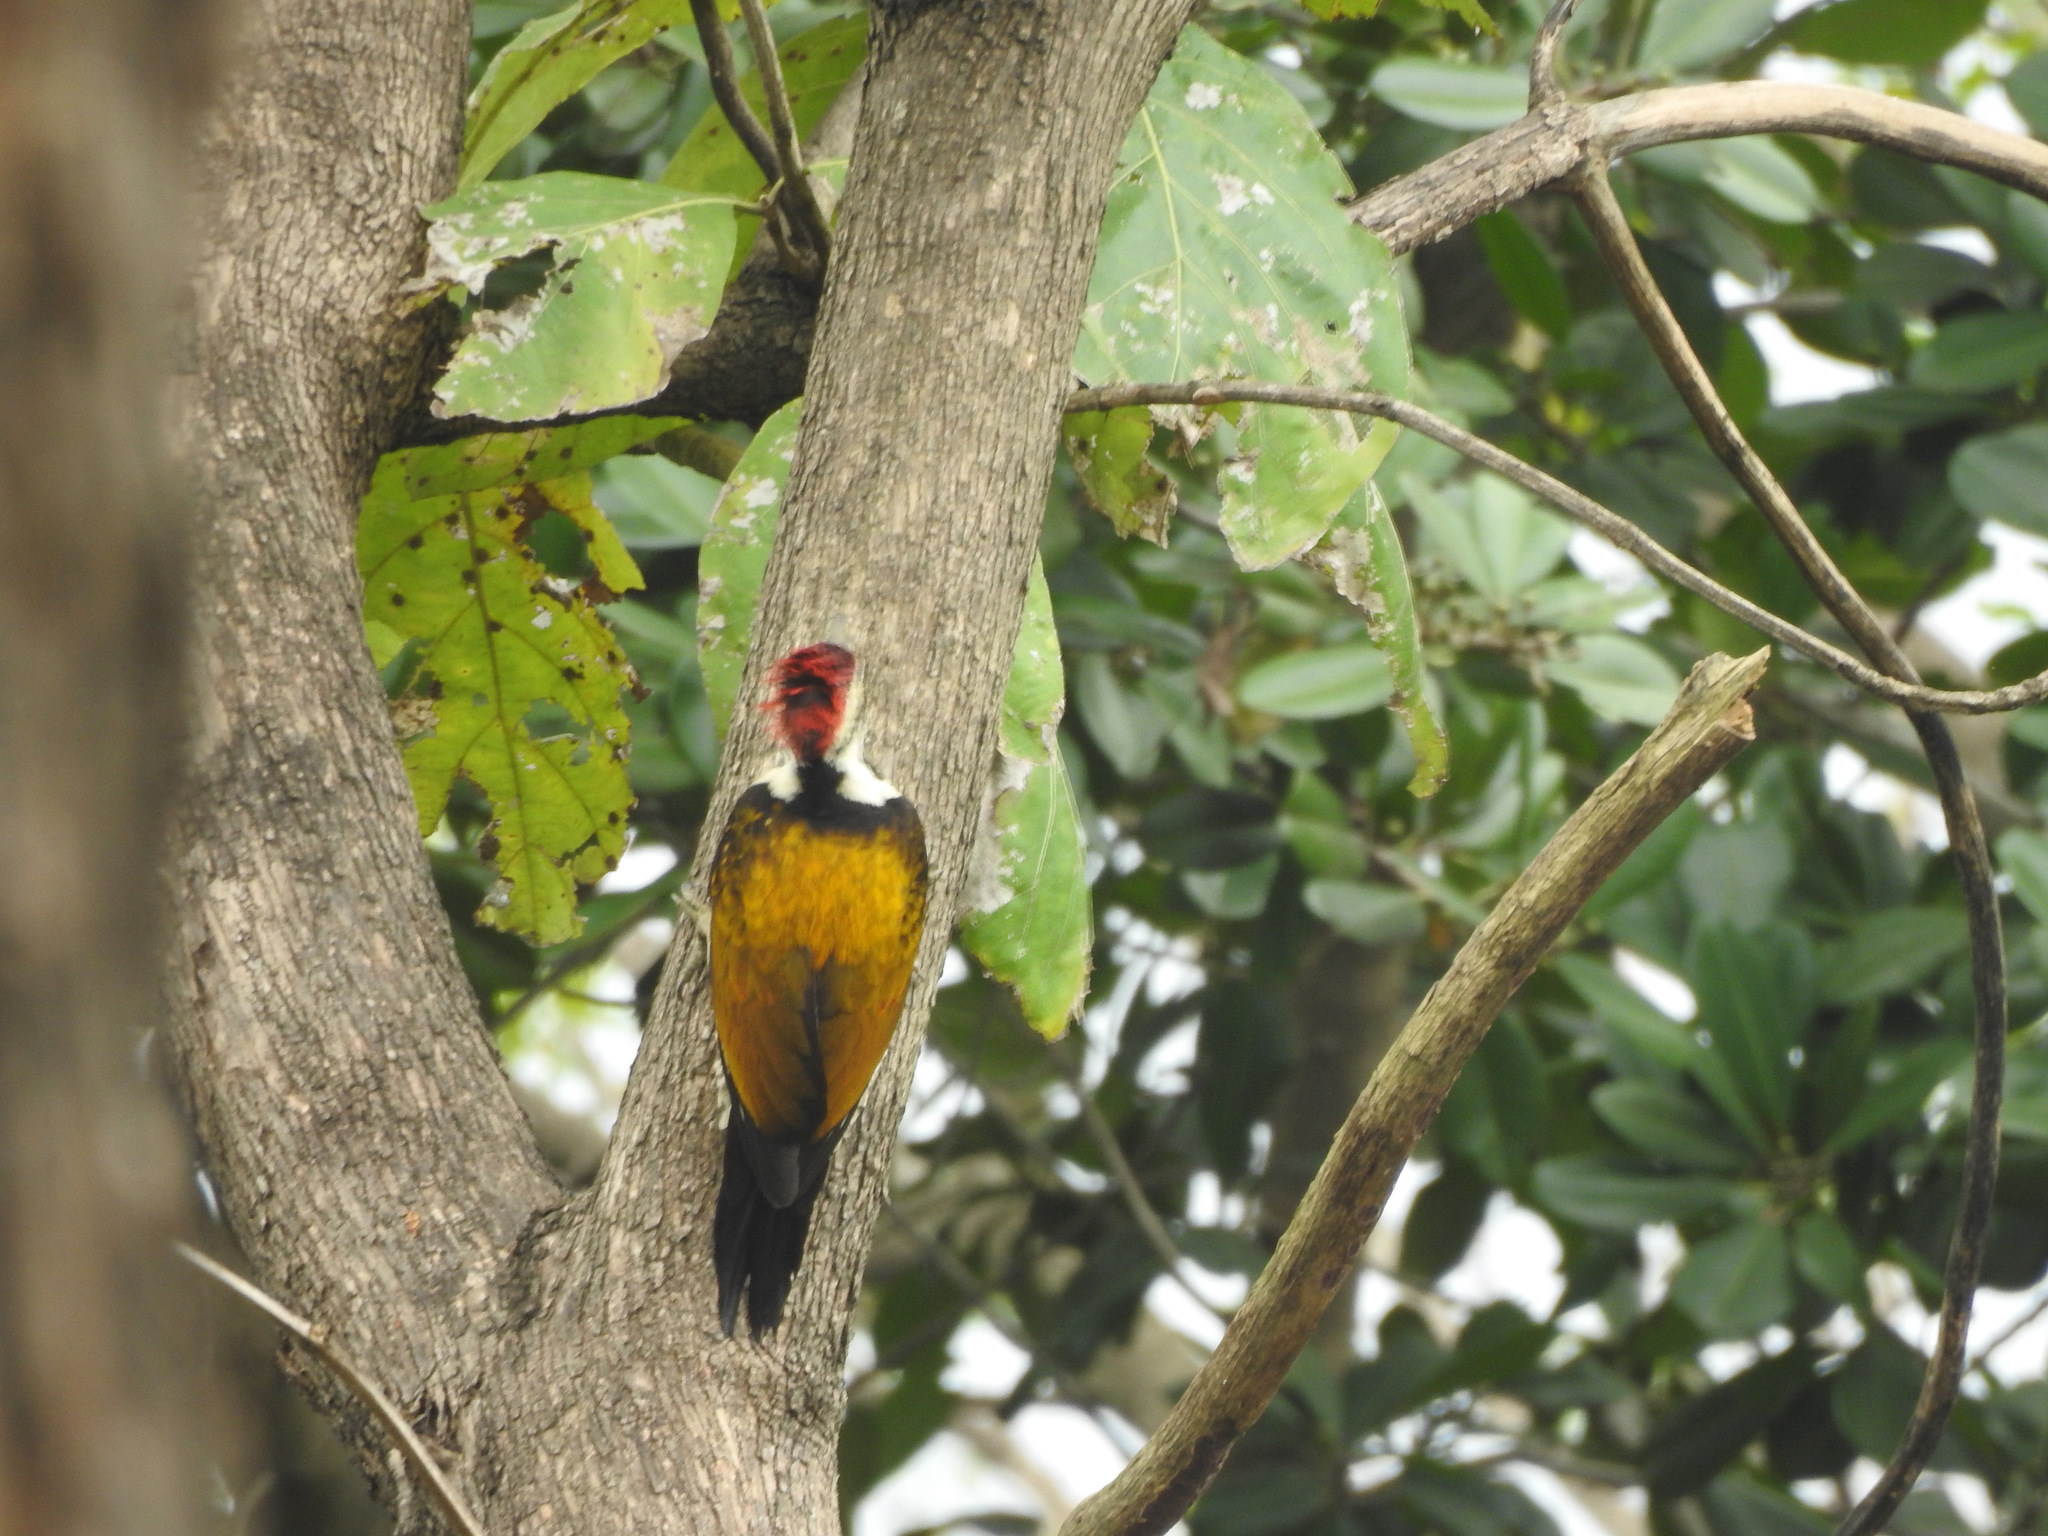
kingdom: Animalia
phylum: Chordata
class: Aves
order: Piciformes
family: Picidae
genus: Dinopium
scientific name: Dinopium benghalense
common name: Black-rumped flameback
